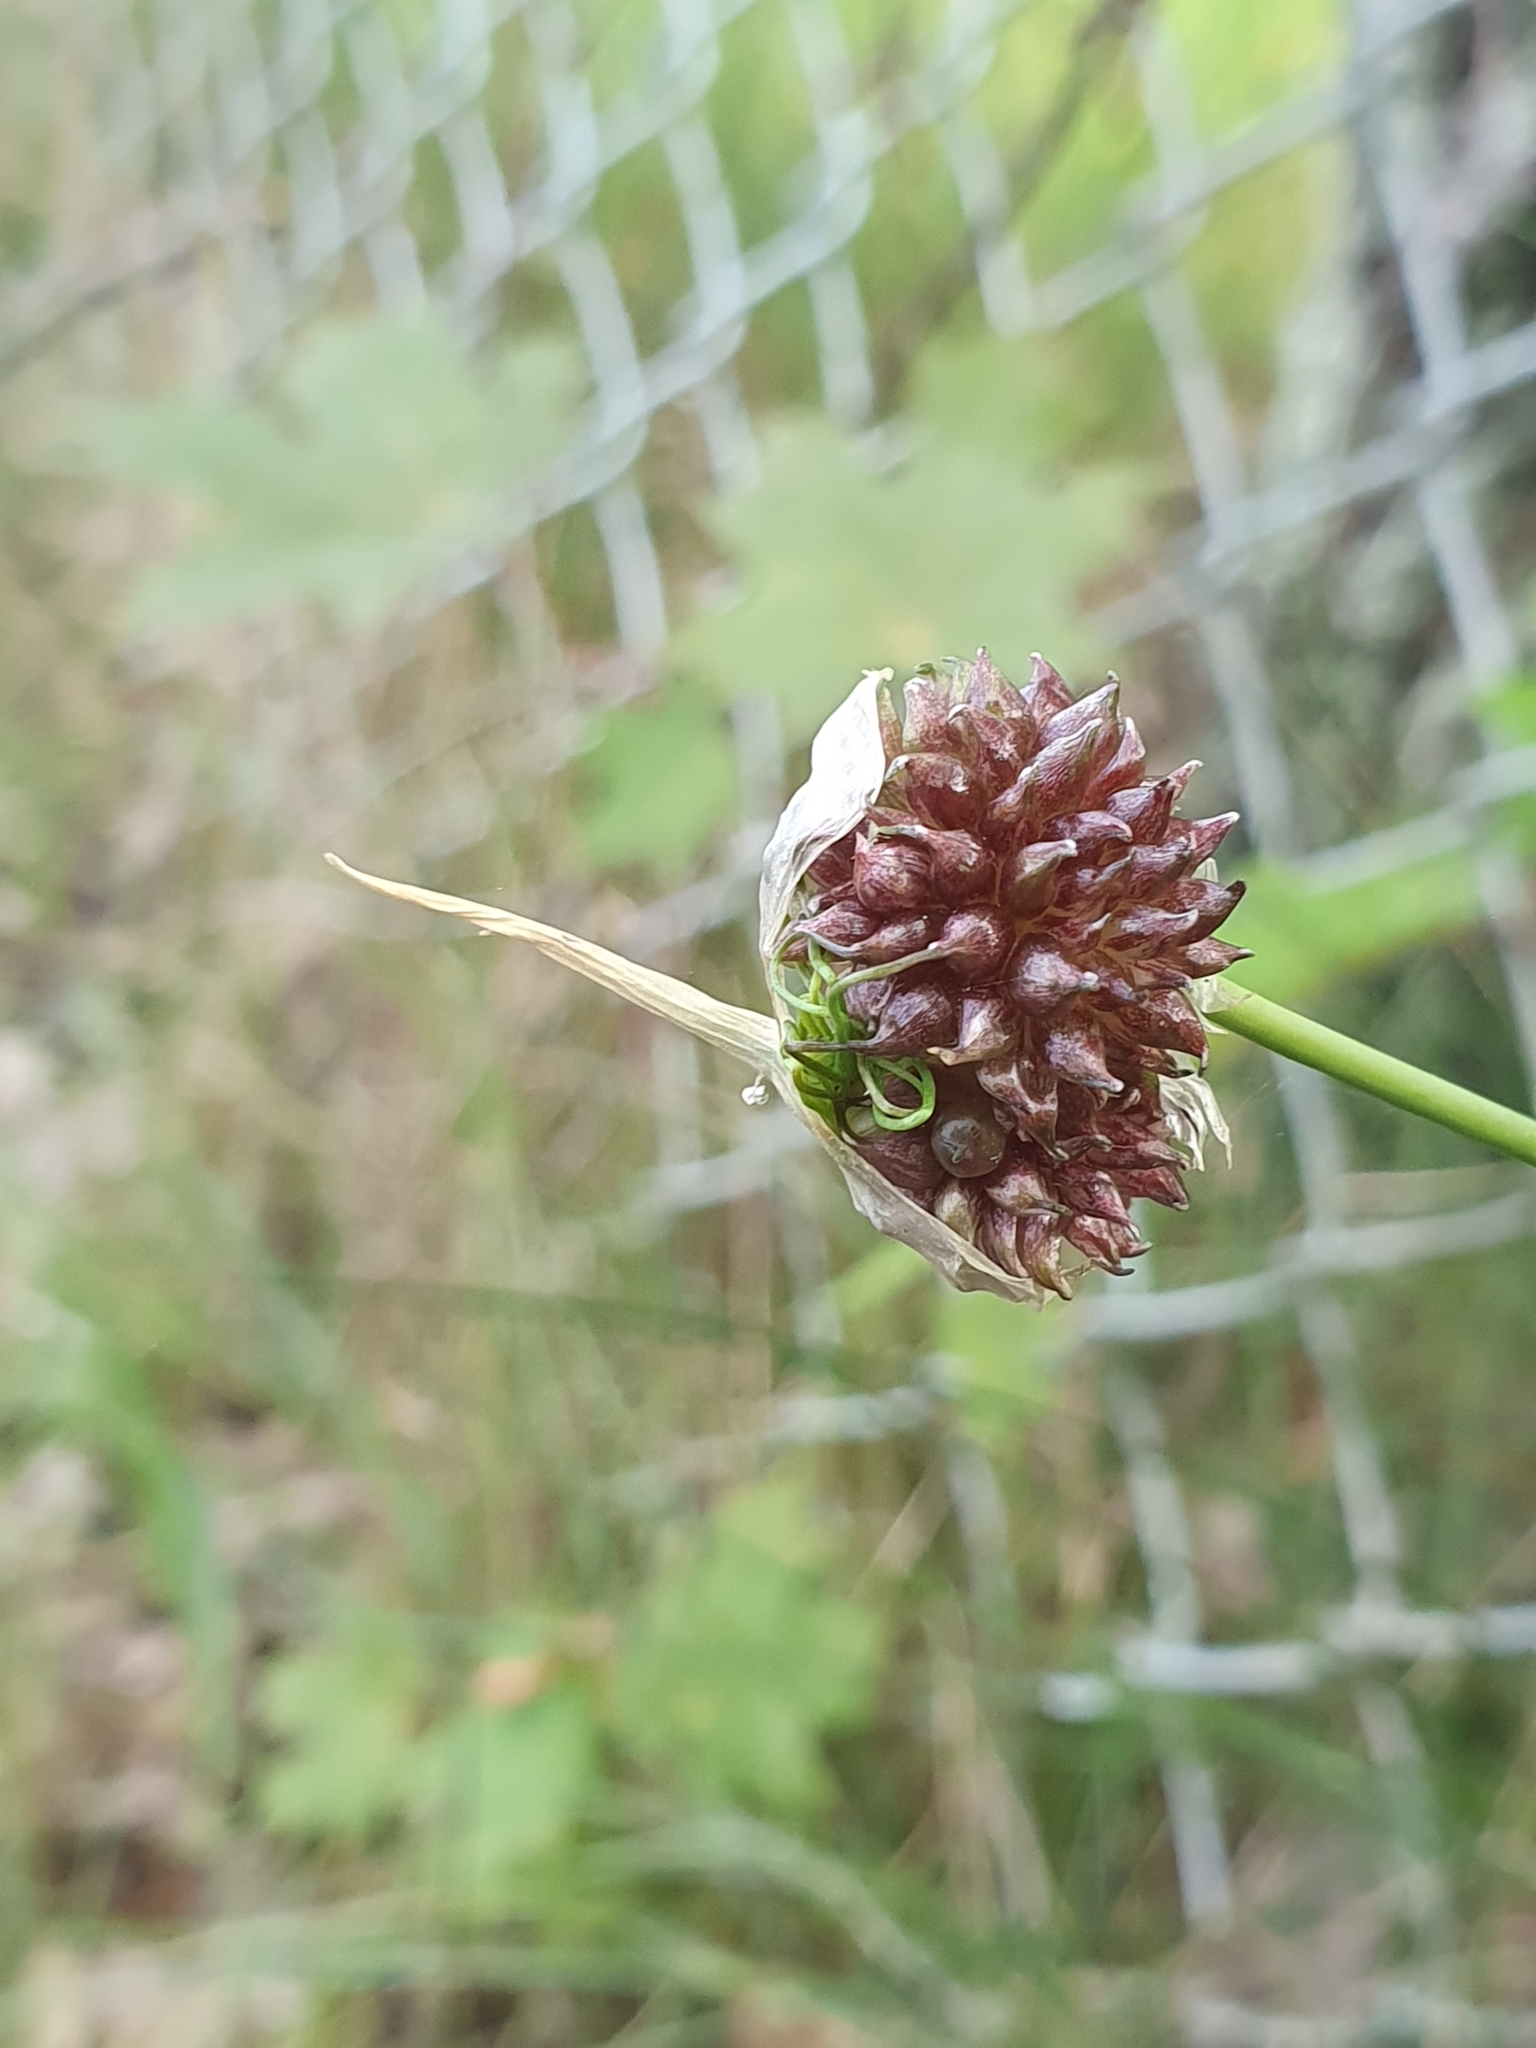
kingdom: Plantae
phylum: Tracheophyta
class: Liliopsida
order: Asparagales
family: Amaryllidaceae
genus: Allium
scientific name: Allium vineale
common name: Crow garlic
